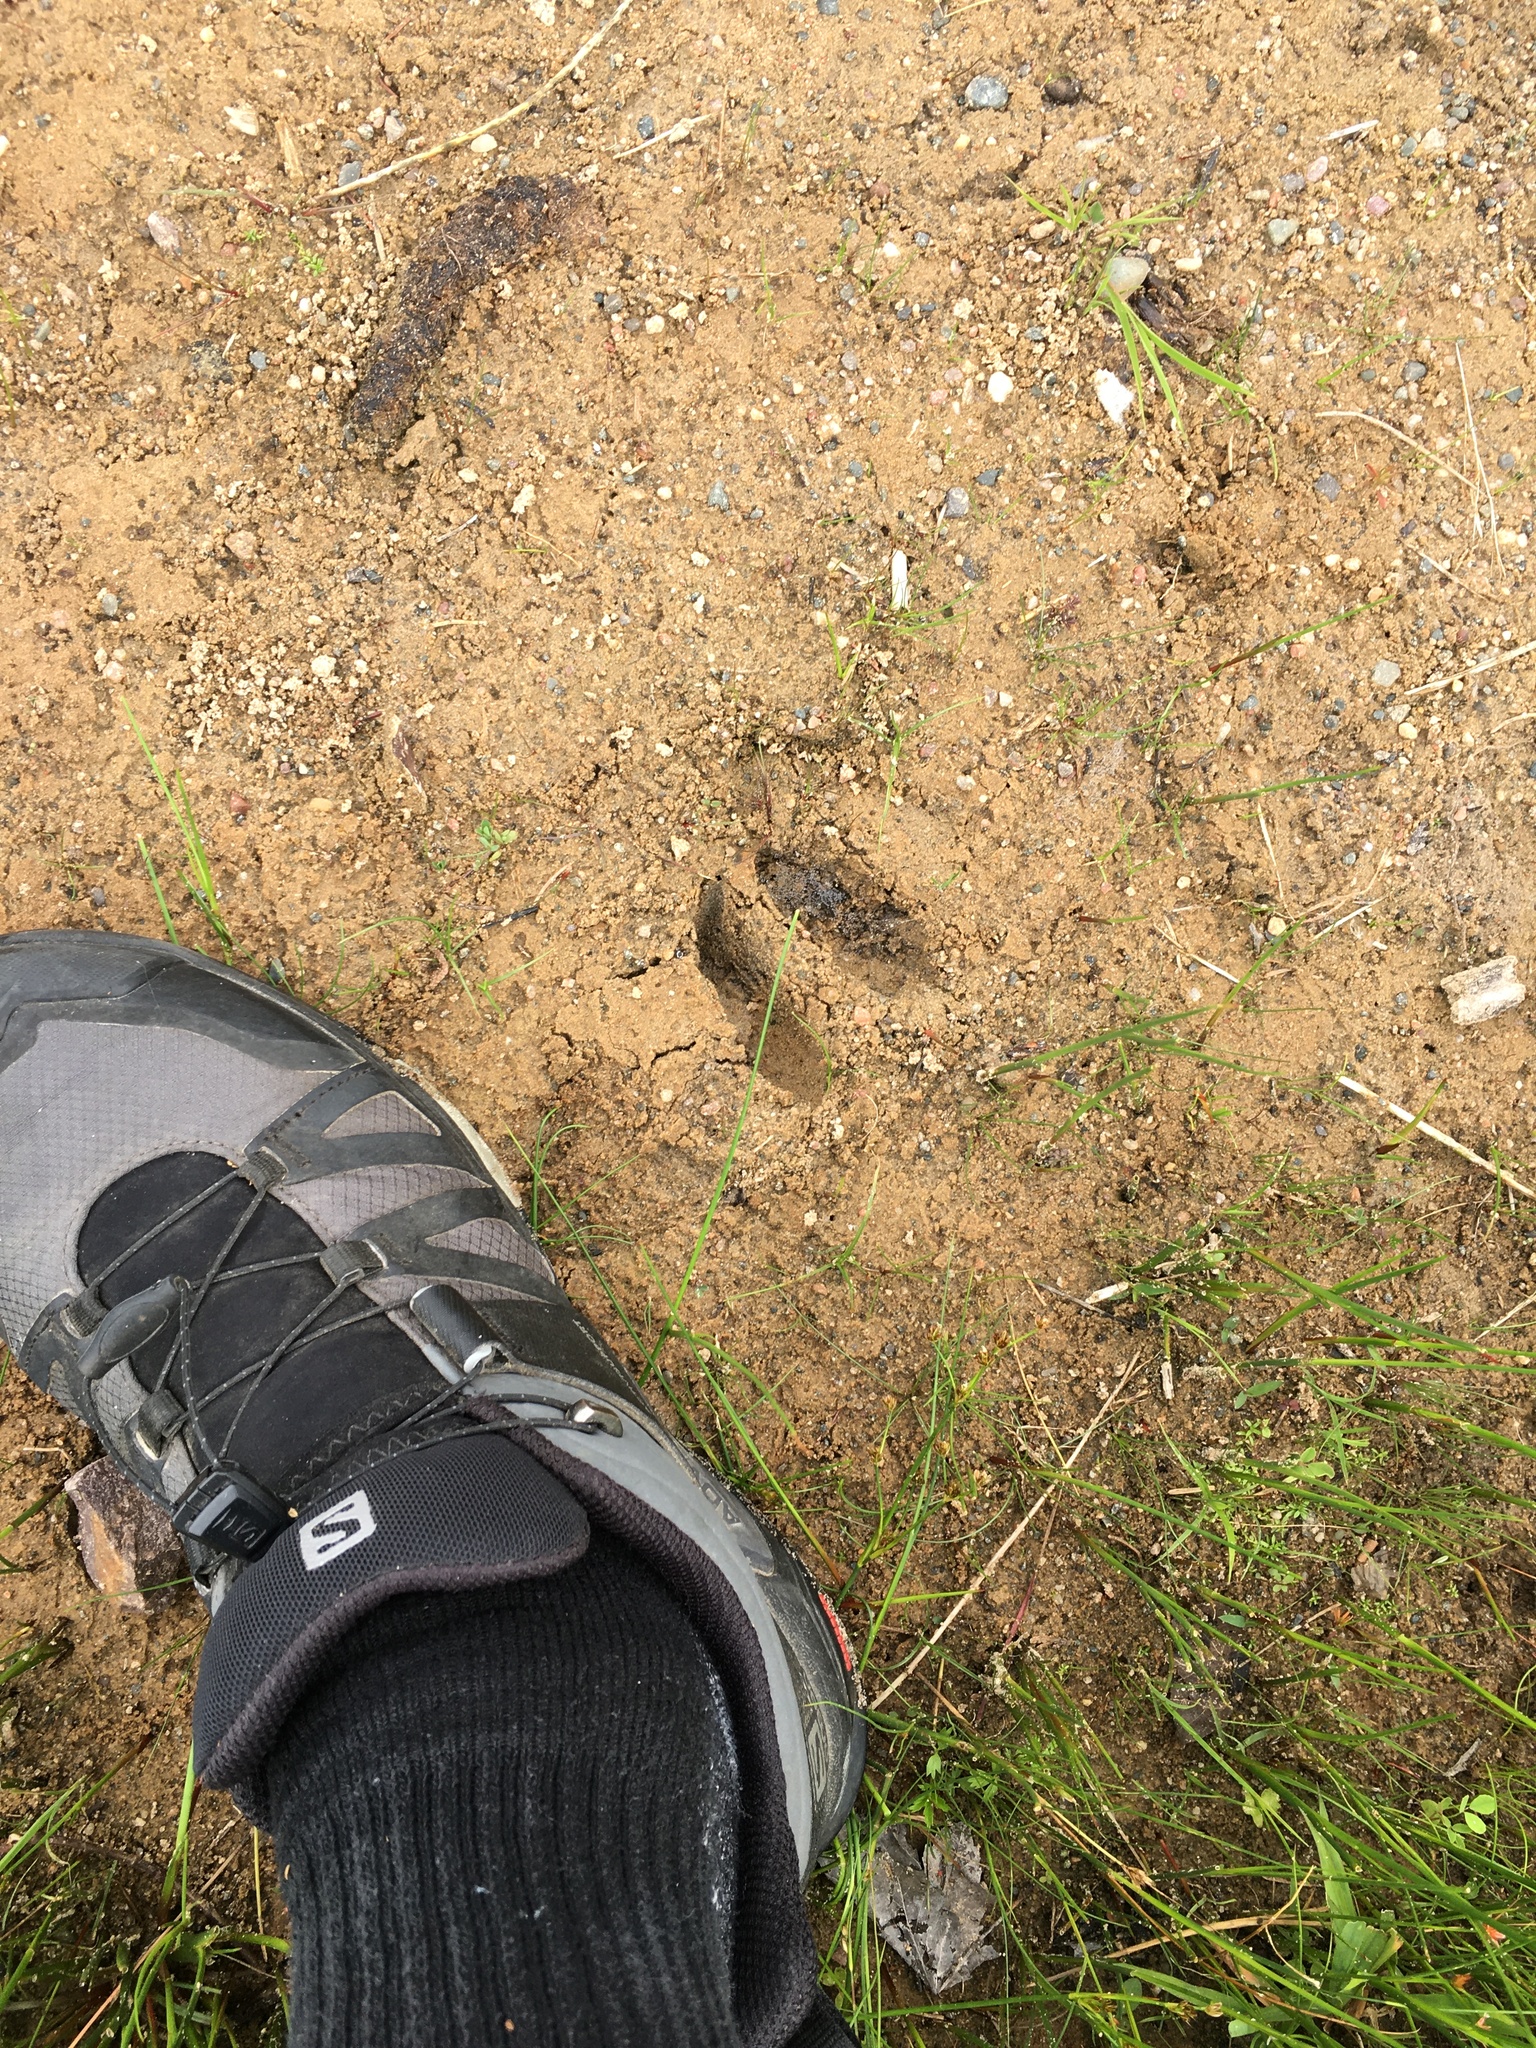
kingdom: Animalia
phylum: Chordata
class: Mammalia
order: Artiodactyla
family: Cervidae
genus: Odocoileus
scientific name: Odocoileus virginianus
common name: White-tailed deer
